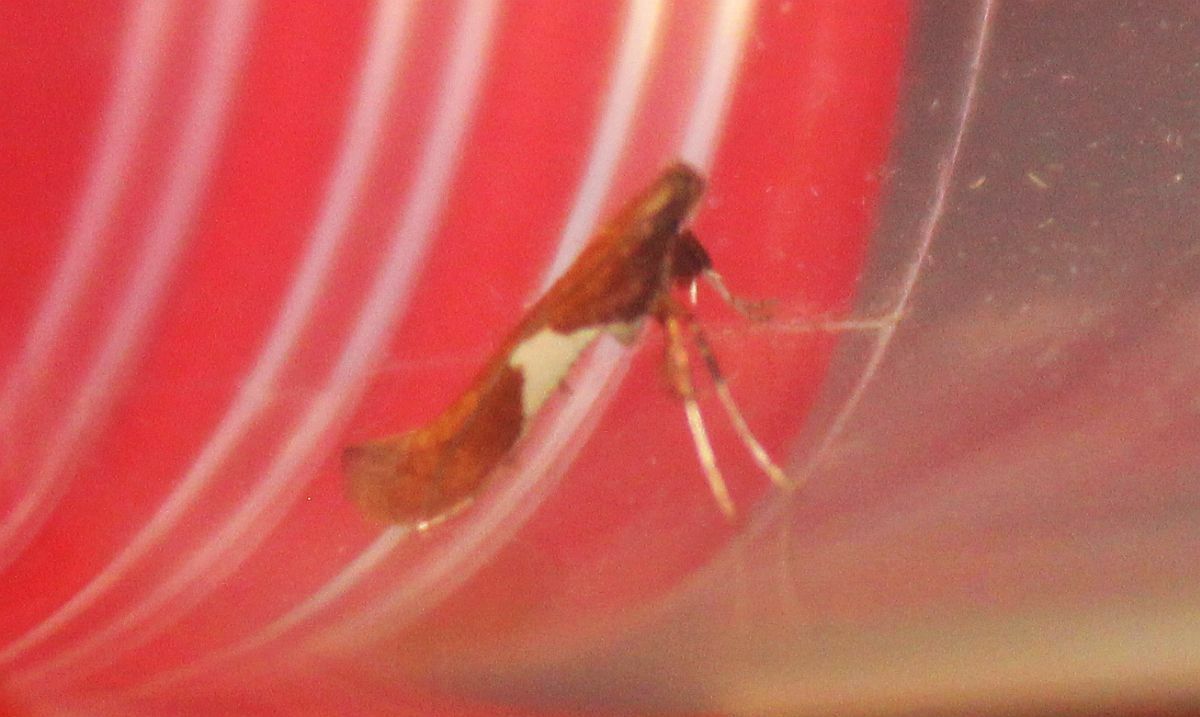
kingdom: Animalia
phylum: Arthropoda
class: Insecta
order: Lepidoptera
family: Gracillariidae
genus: Caloptilia
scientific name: Caloptilia stigmatella
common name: White-triangle slender
